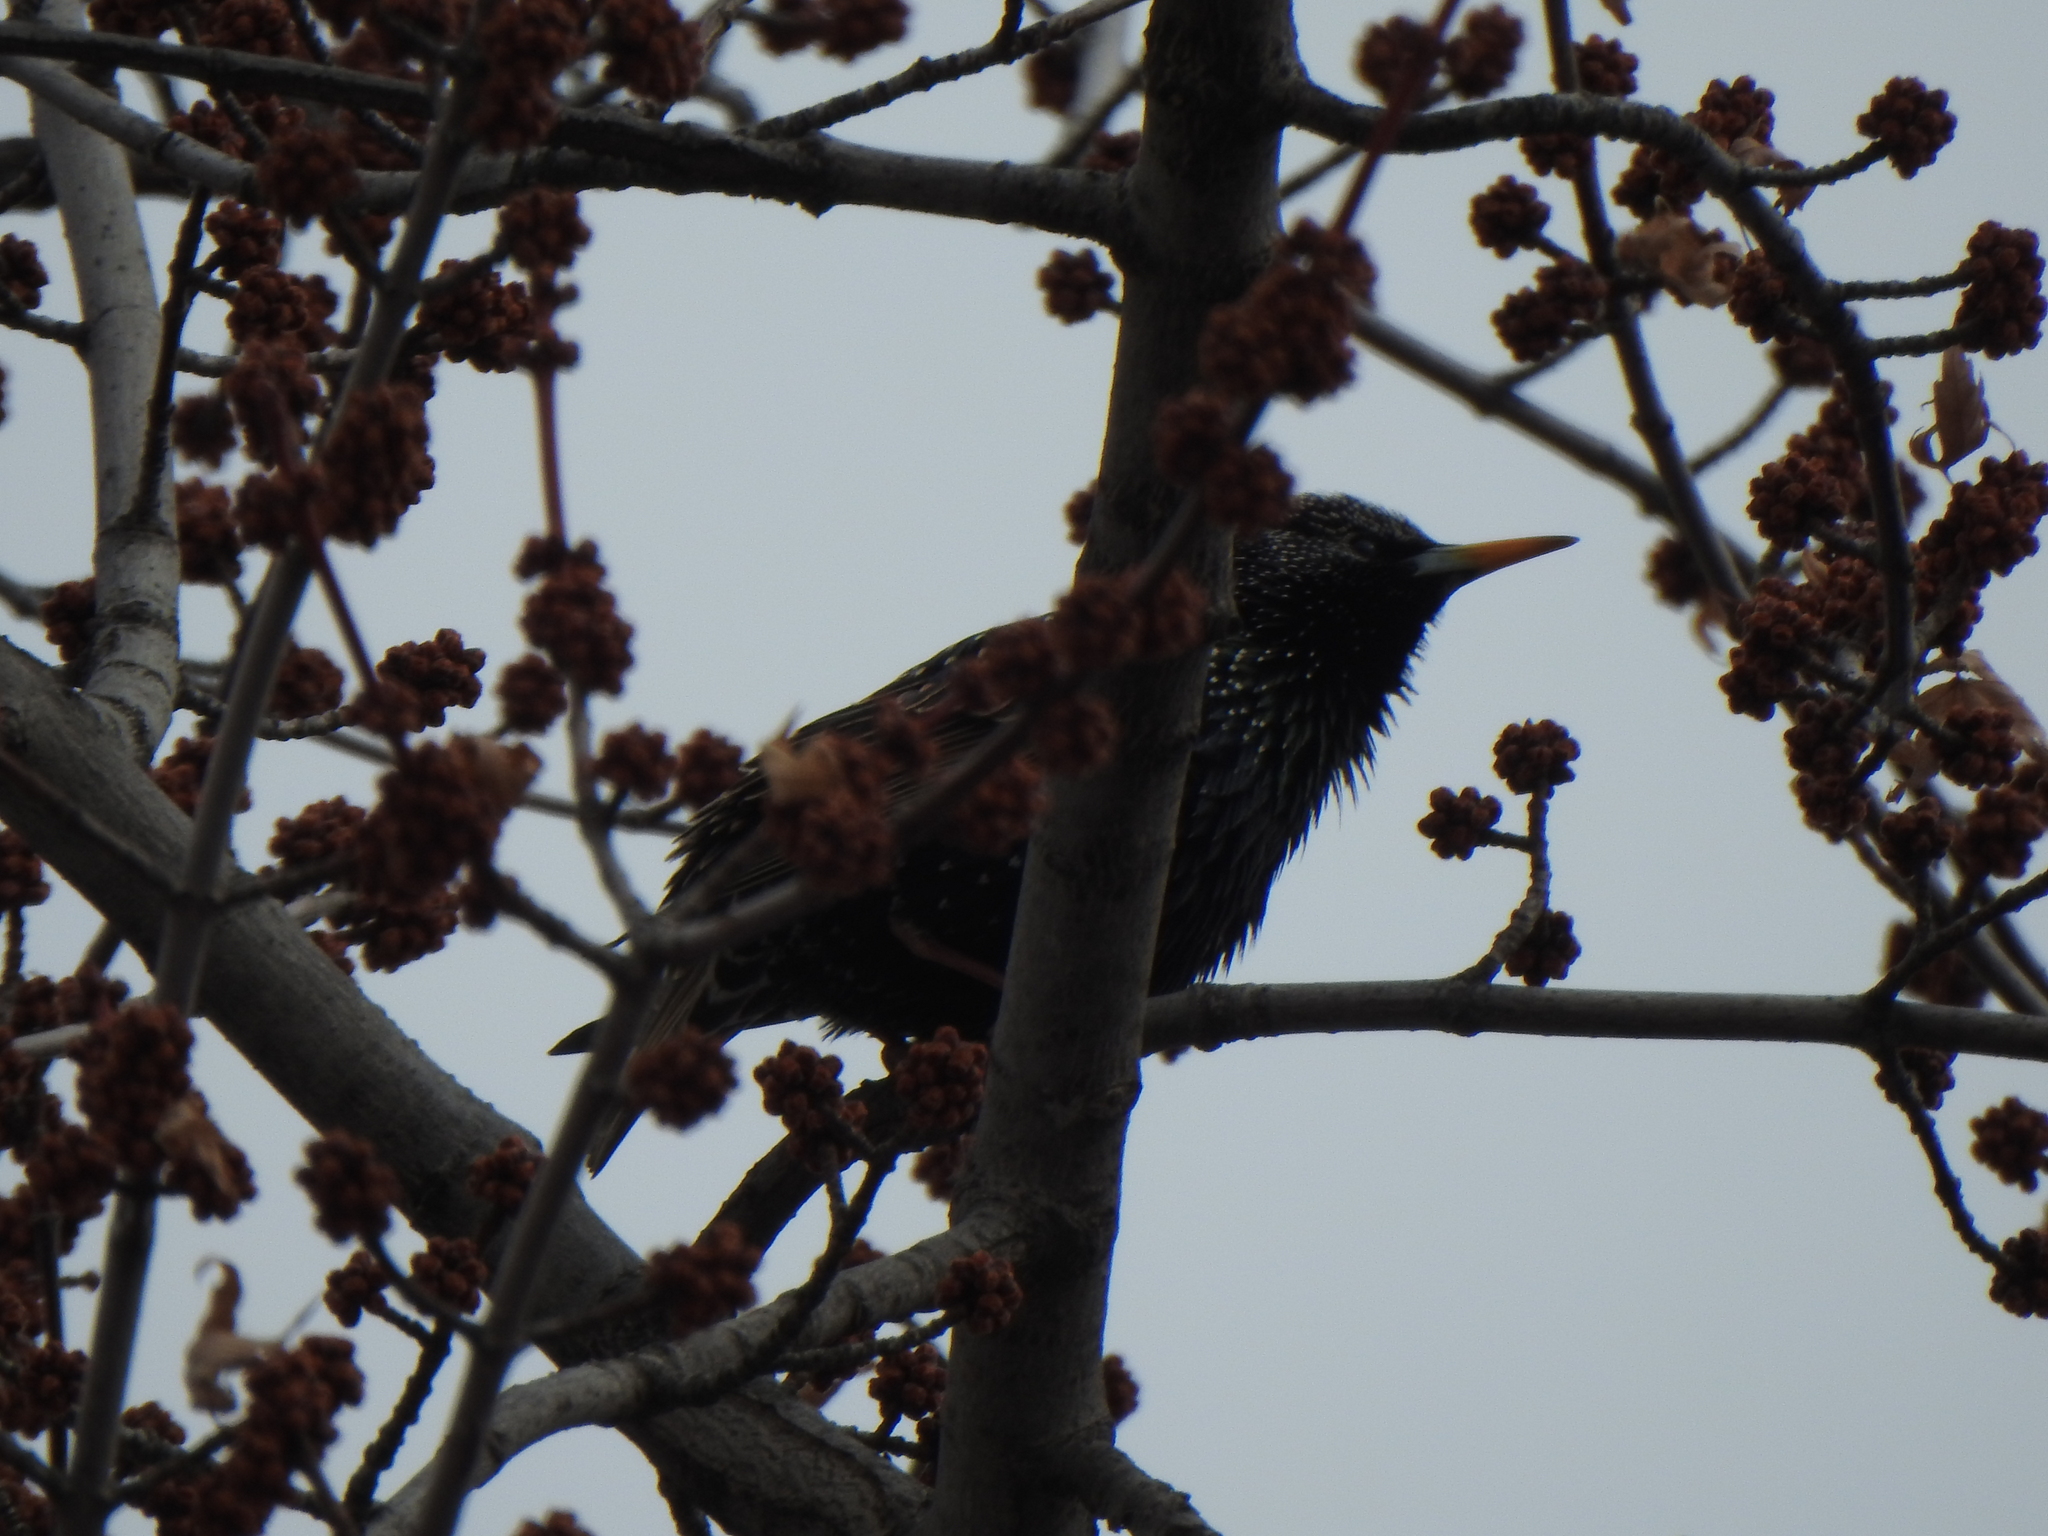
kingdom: Animalia
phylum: Chordata
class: Aves
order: Passeriformes
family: Sturnidae
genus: Sturnus
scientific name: Sturnus vulgaris
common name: Common starling
